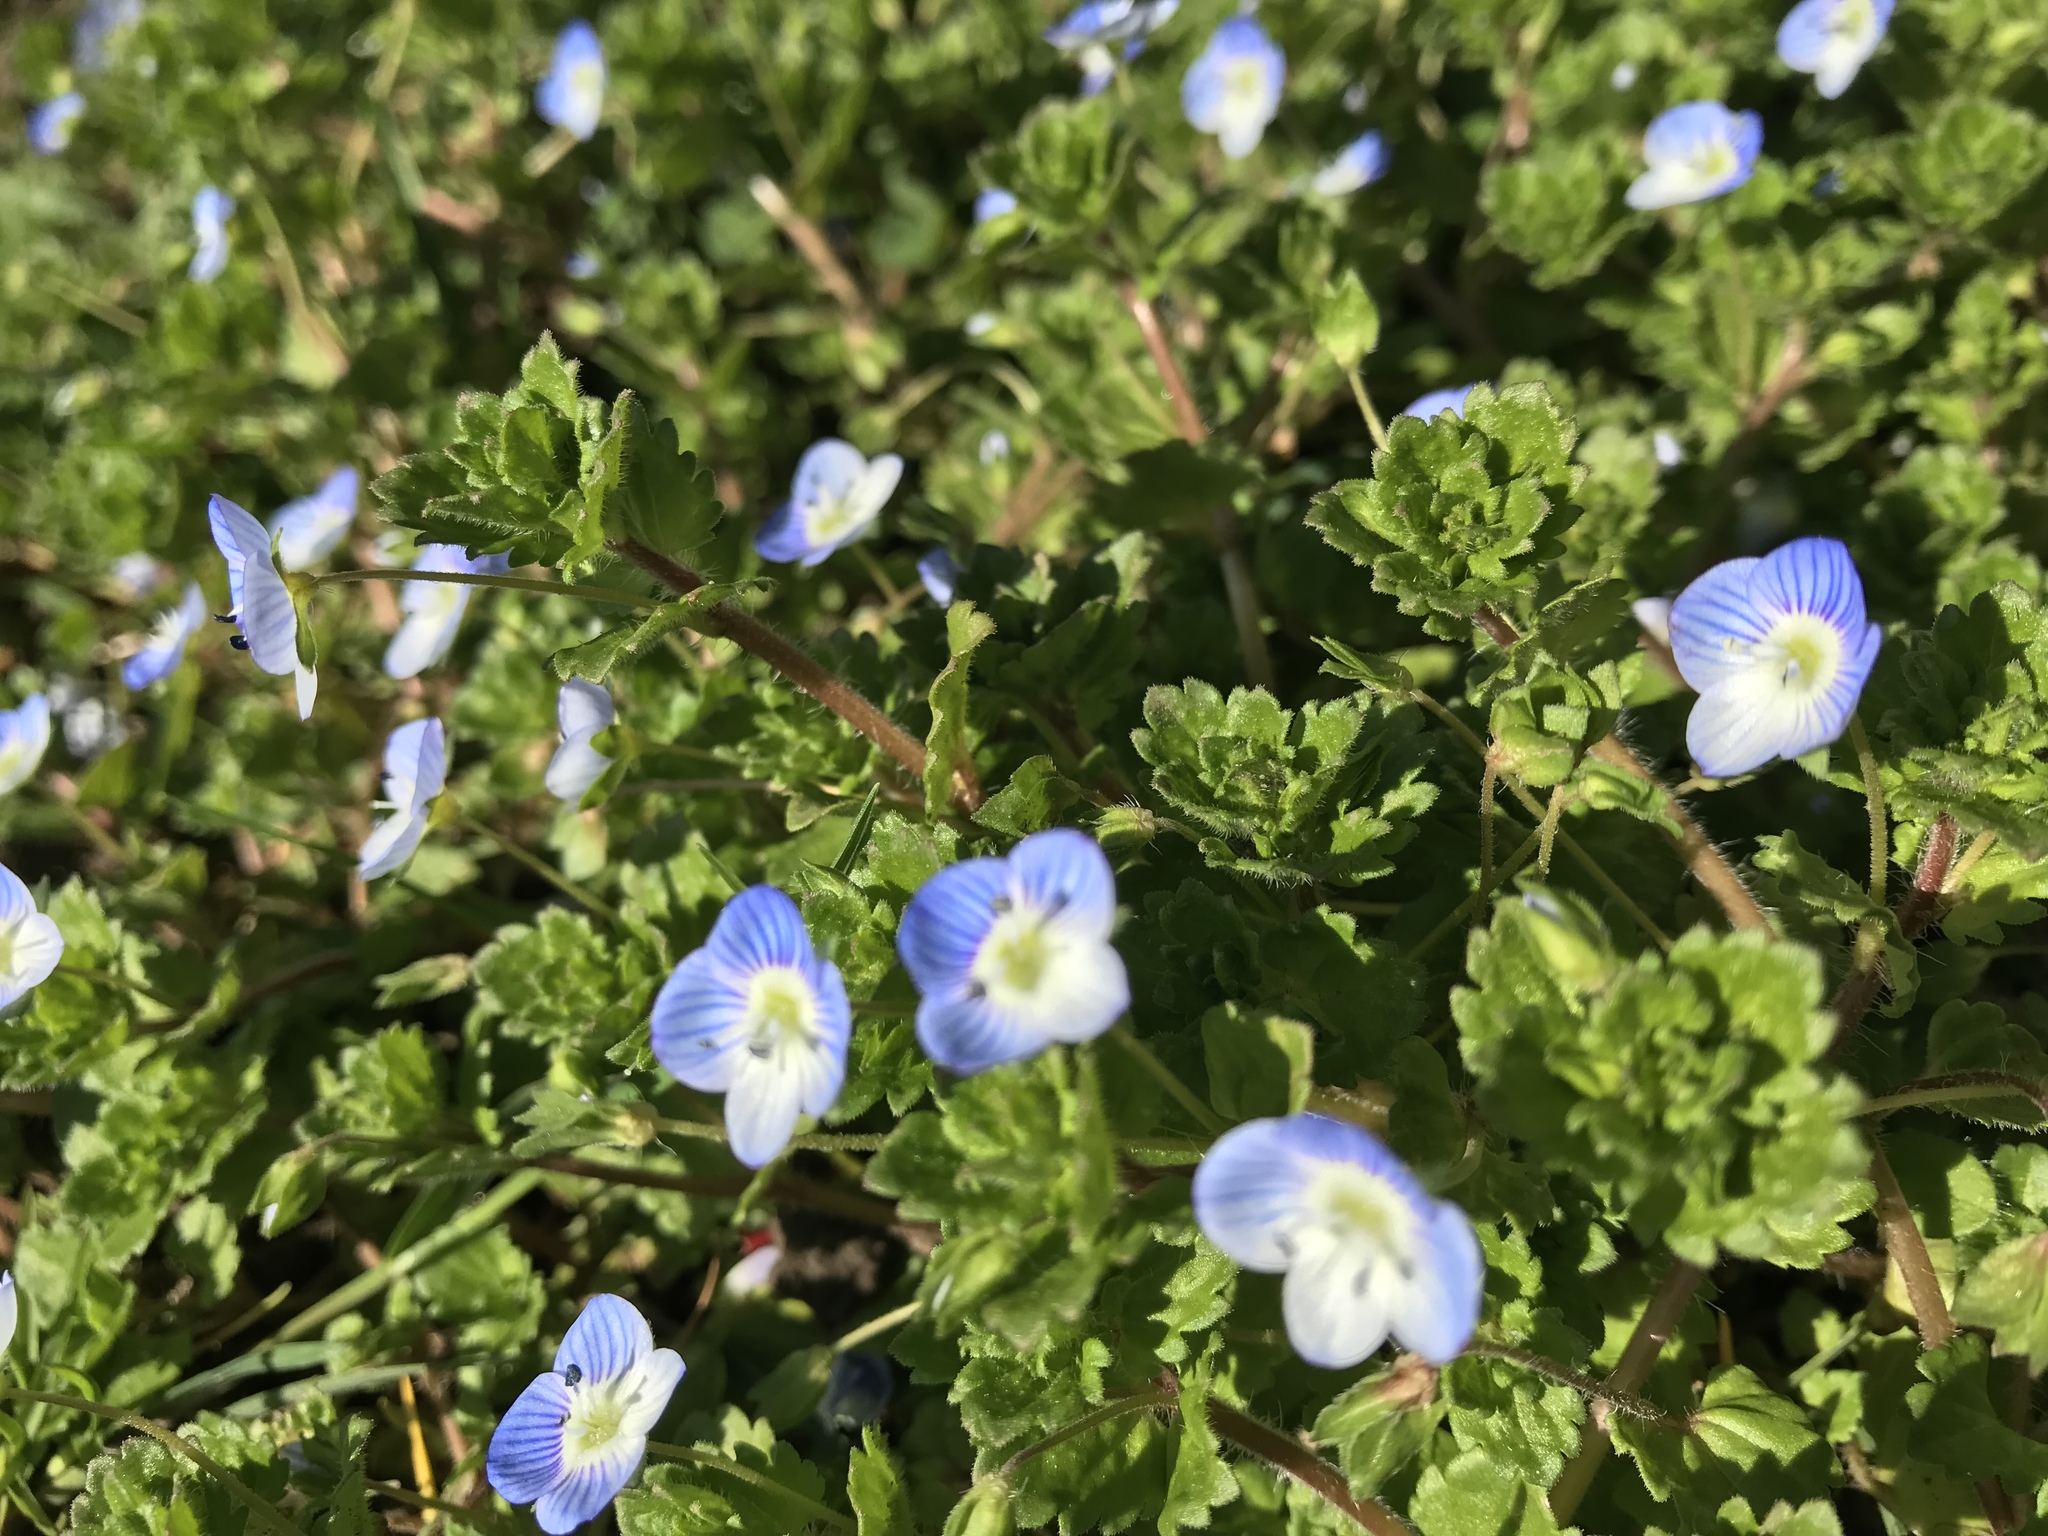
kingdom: Plantae
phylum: Tracheophyta
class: Magnoliopsida
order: Lamiales
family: Plantaginaceae
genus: Veronica
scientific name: Veronica persica
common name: Common field-speedwell
